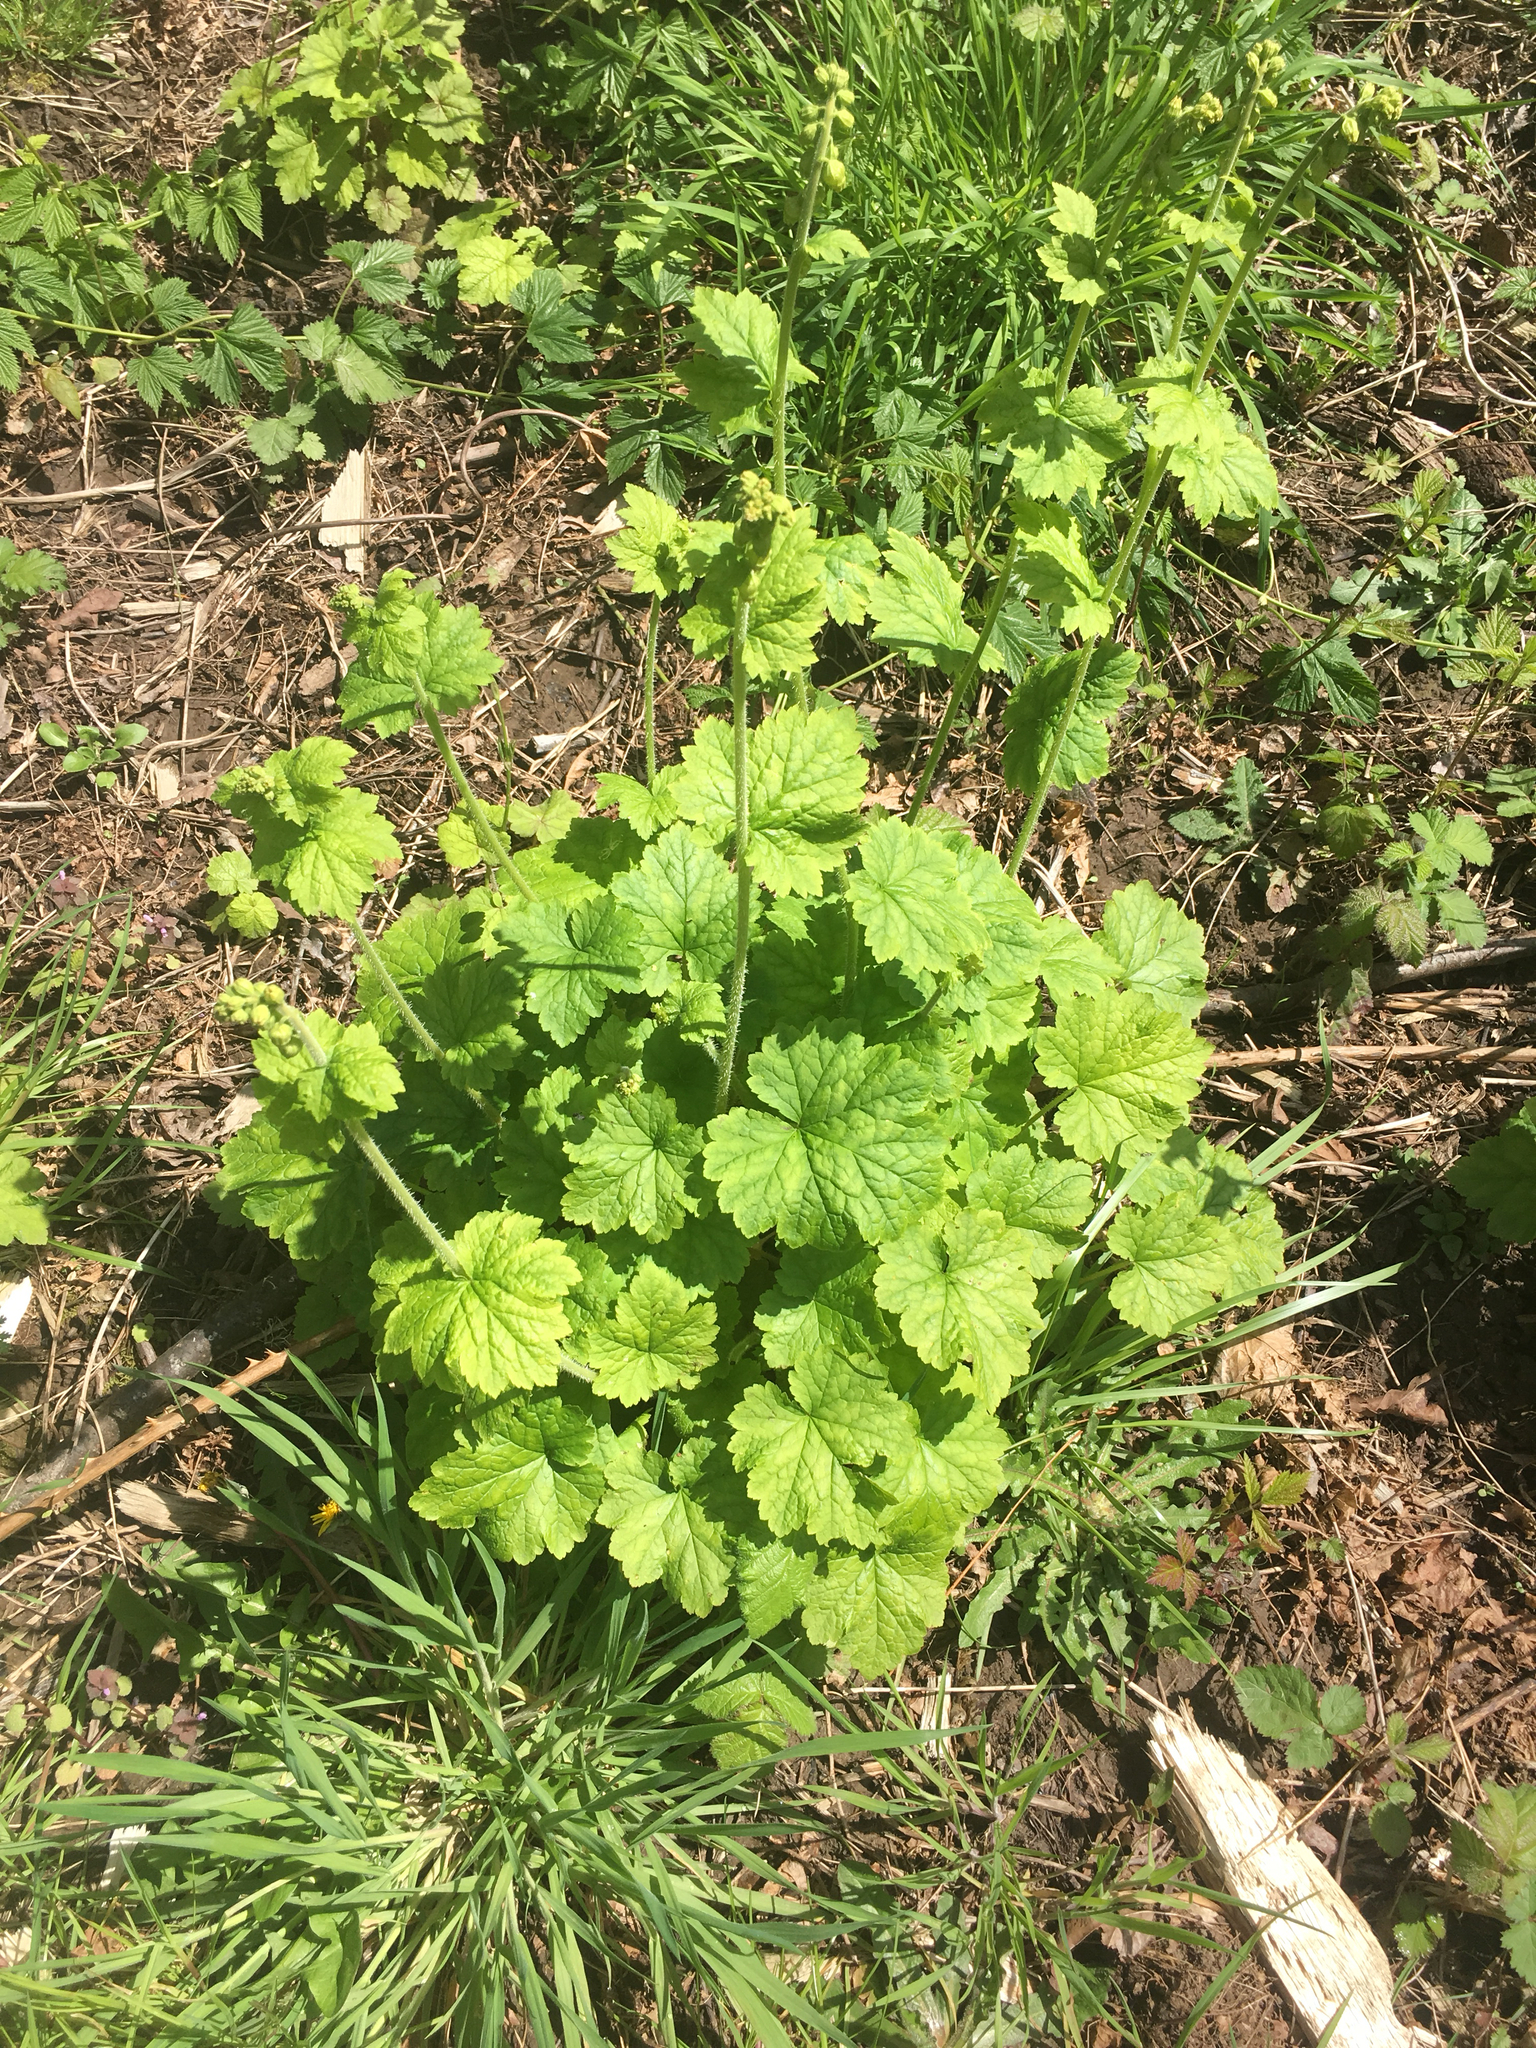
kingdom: Plantae
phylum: Tracheophyta
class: Magnoliopsida
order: Saxifragales
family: Saxifragaceae
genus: Tellima
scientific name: Tellima grandiflora
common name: Fringecups
